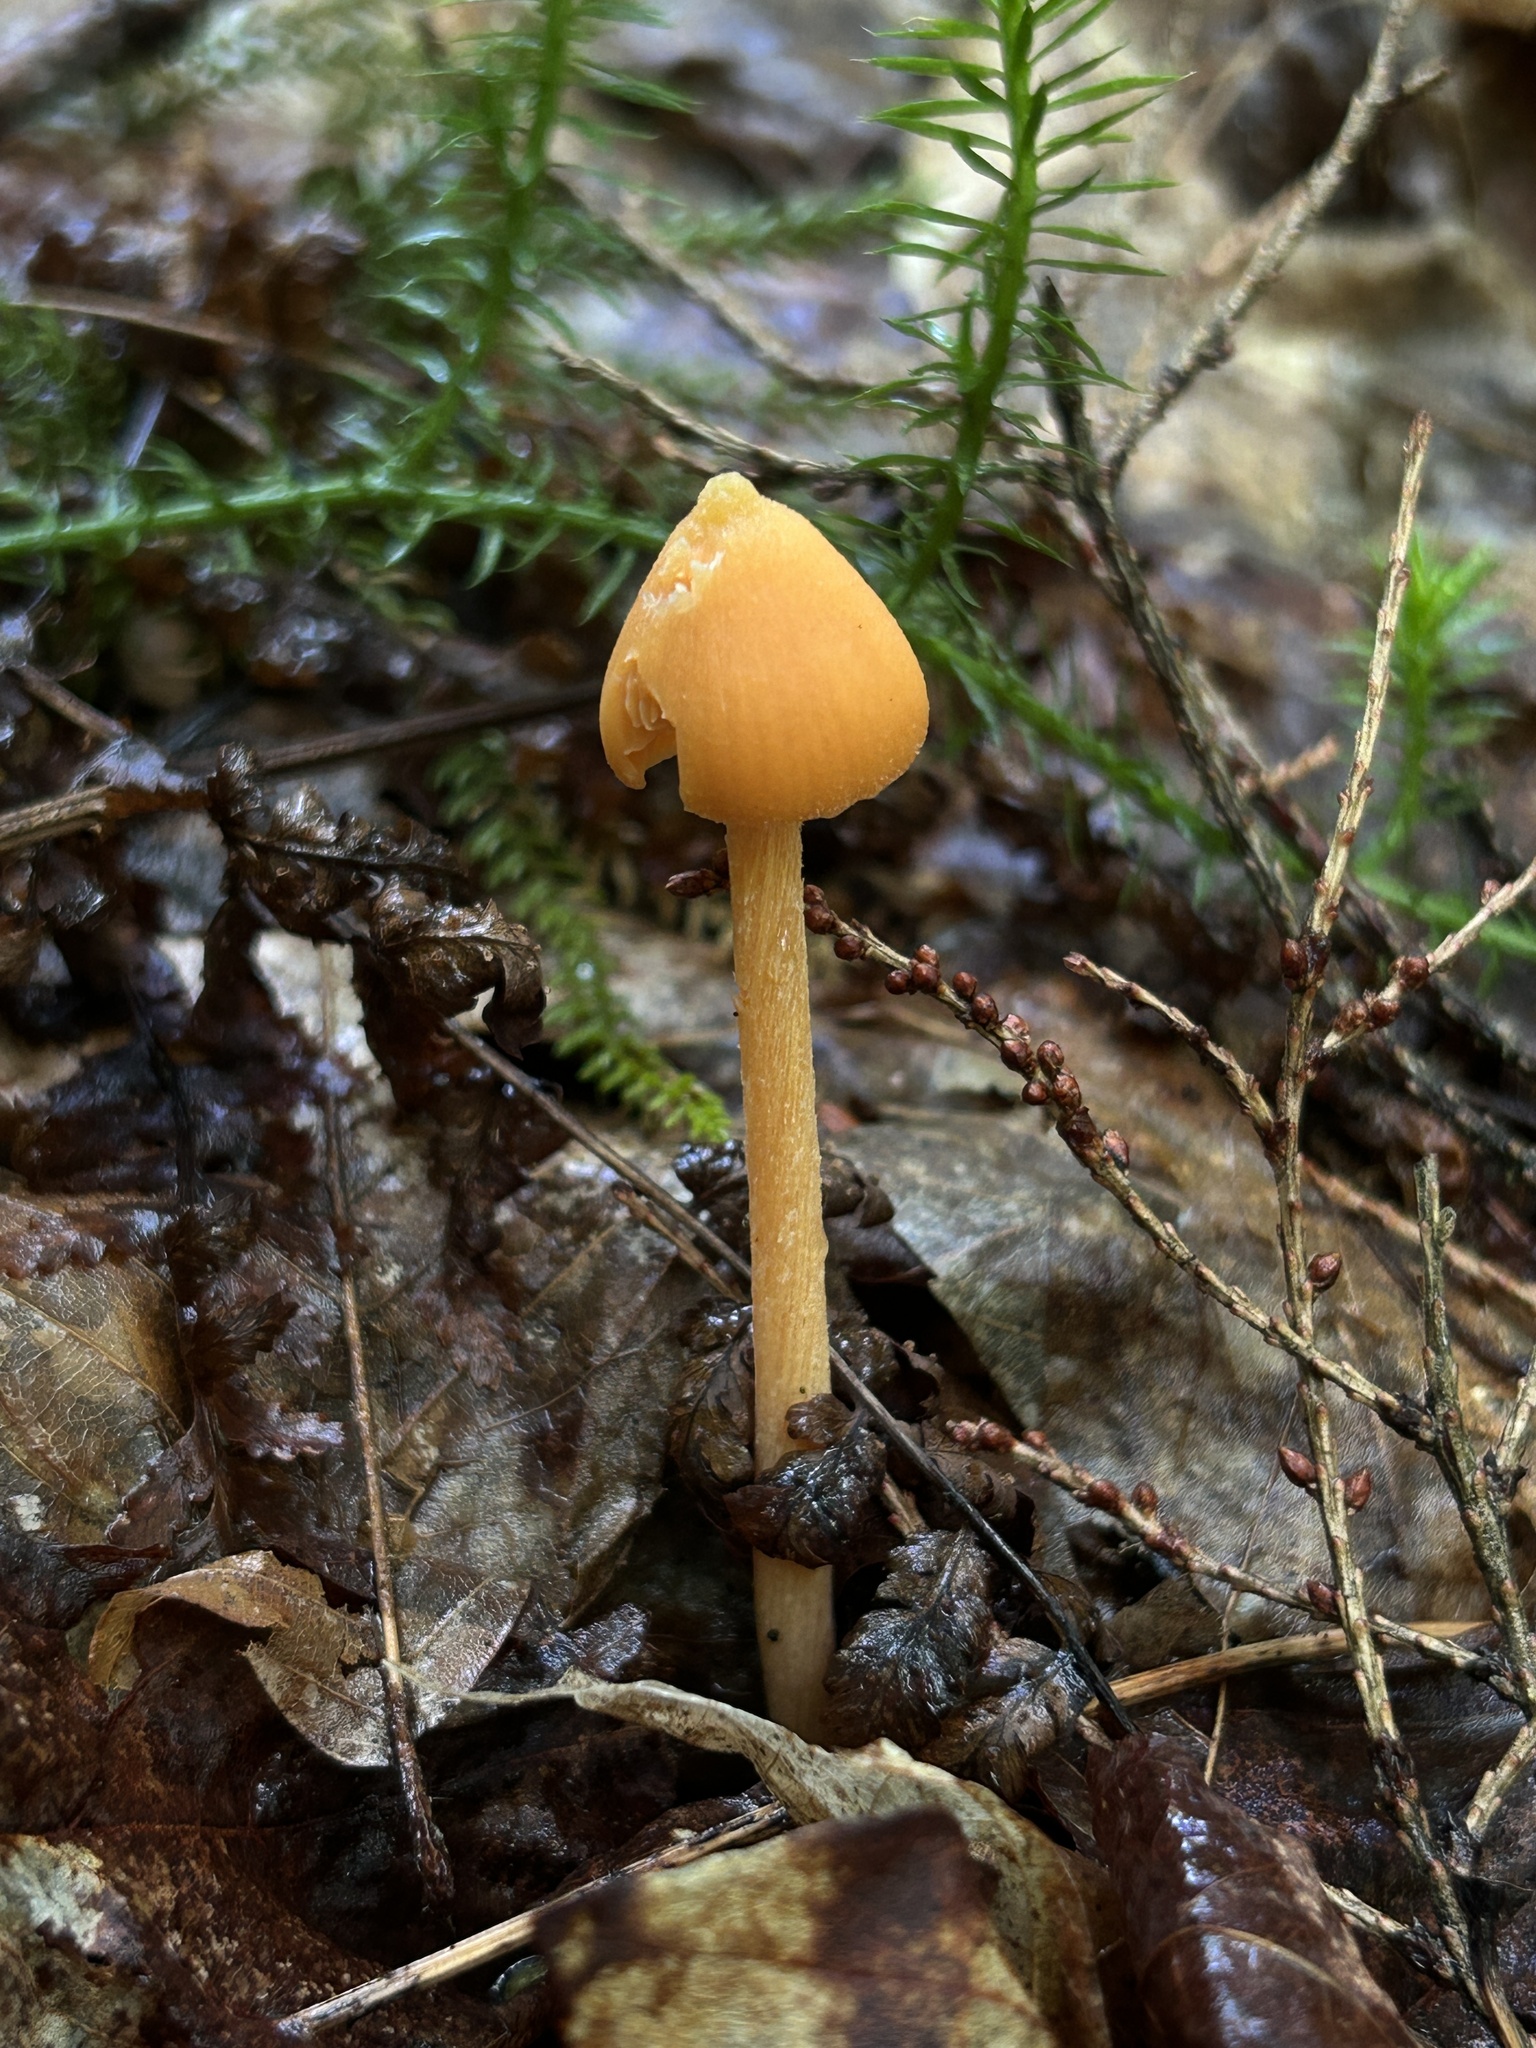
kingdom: Fungi
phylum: Basidiomycota
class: Agaricomycetes
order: Agaricales
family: Entolomataceae
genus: Entoloma
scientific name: Entoloma quadratum
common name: Salmon pinkgill
